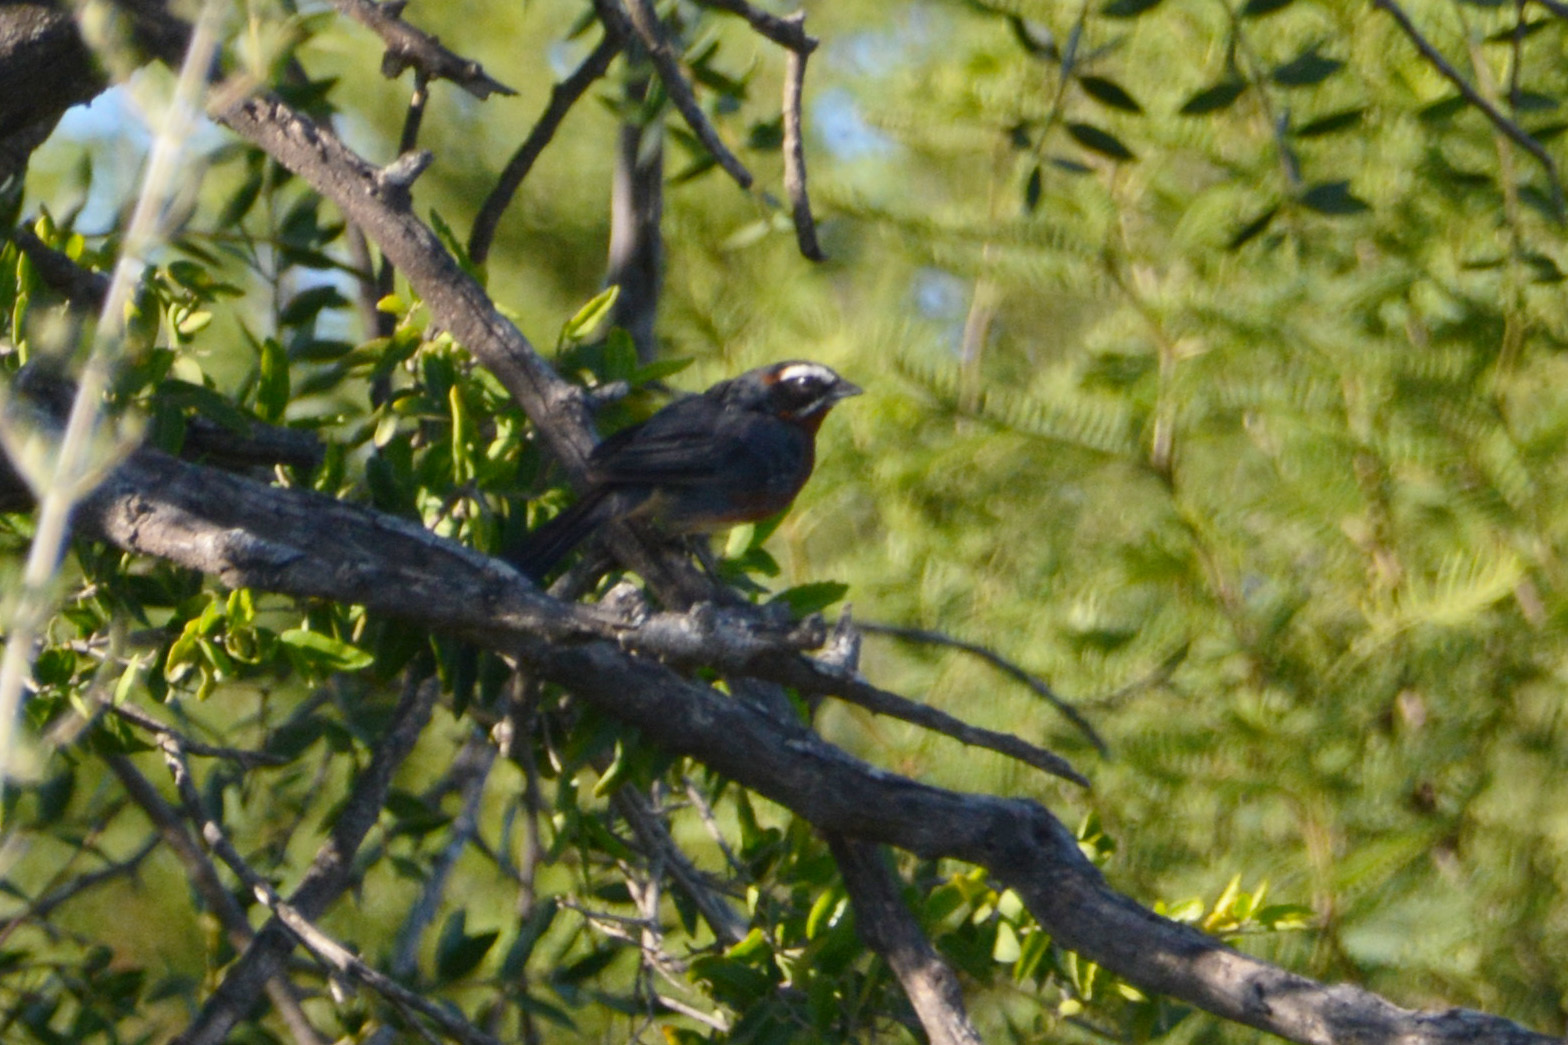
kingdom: Animalia
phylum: Chordata
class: Aves
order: Passeriformes
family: Thraupidae
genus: Poospiza
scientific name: Poospiza whitii
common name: Black-and-chestnut warbling finch
